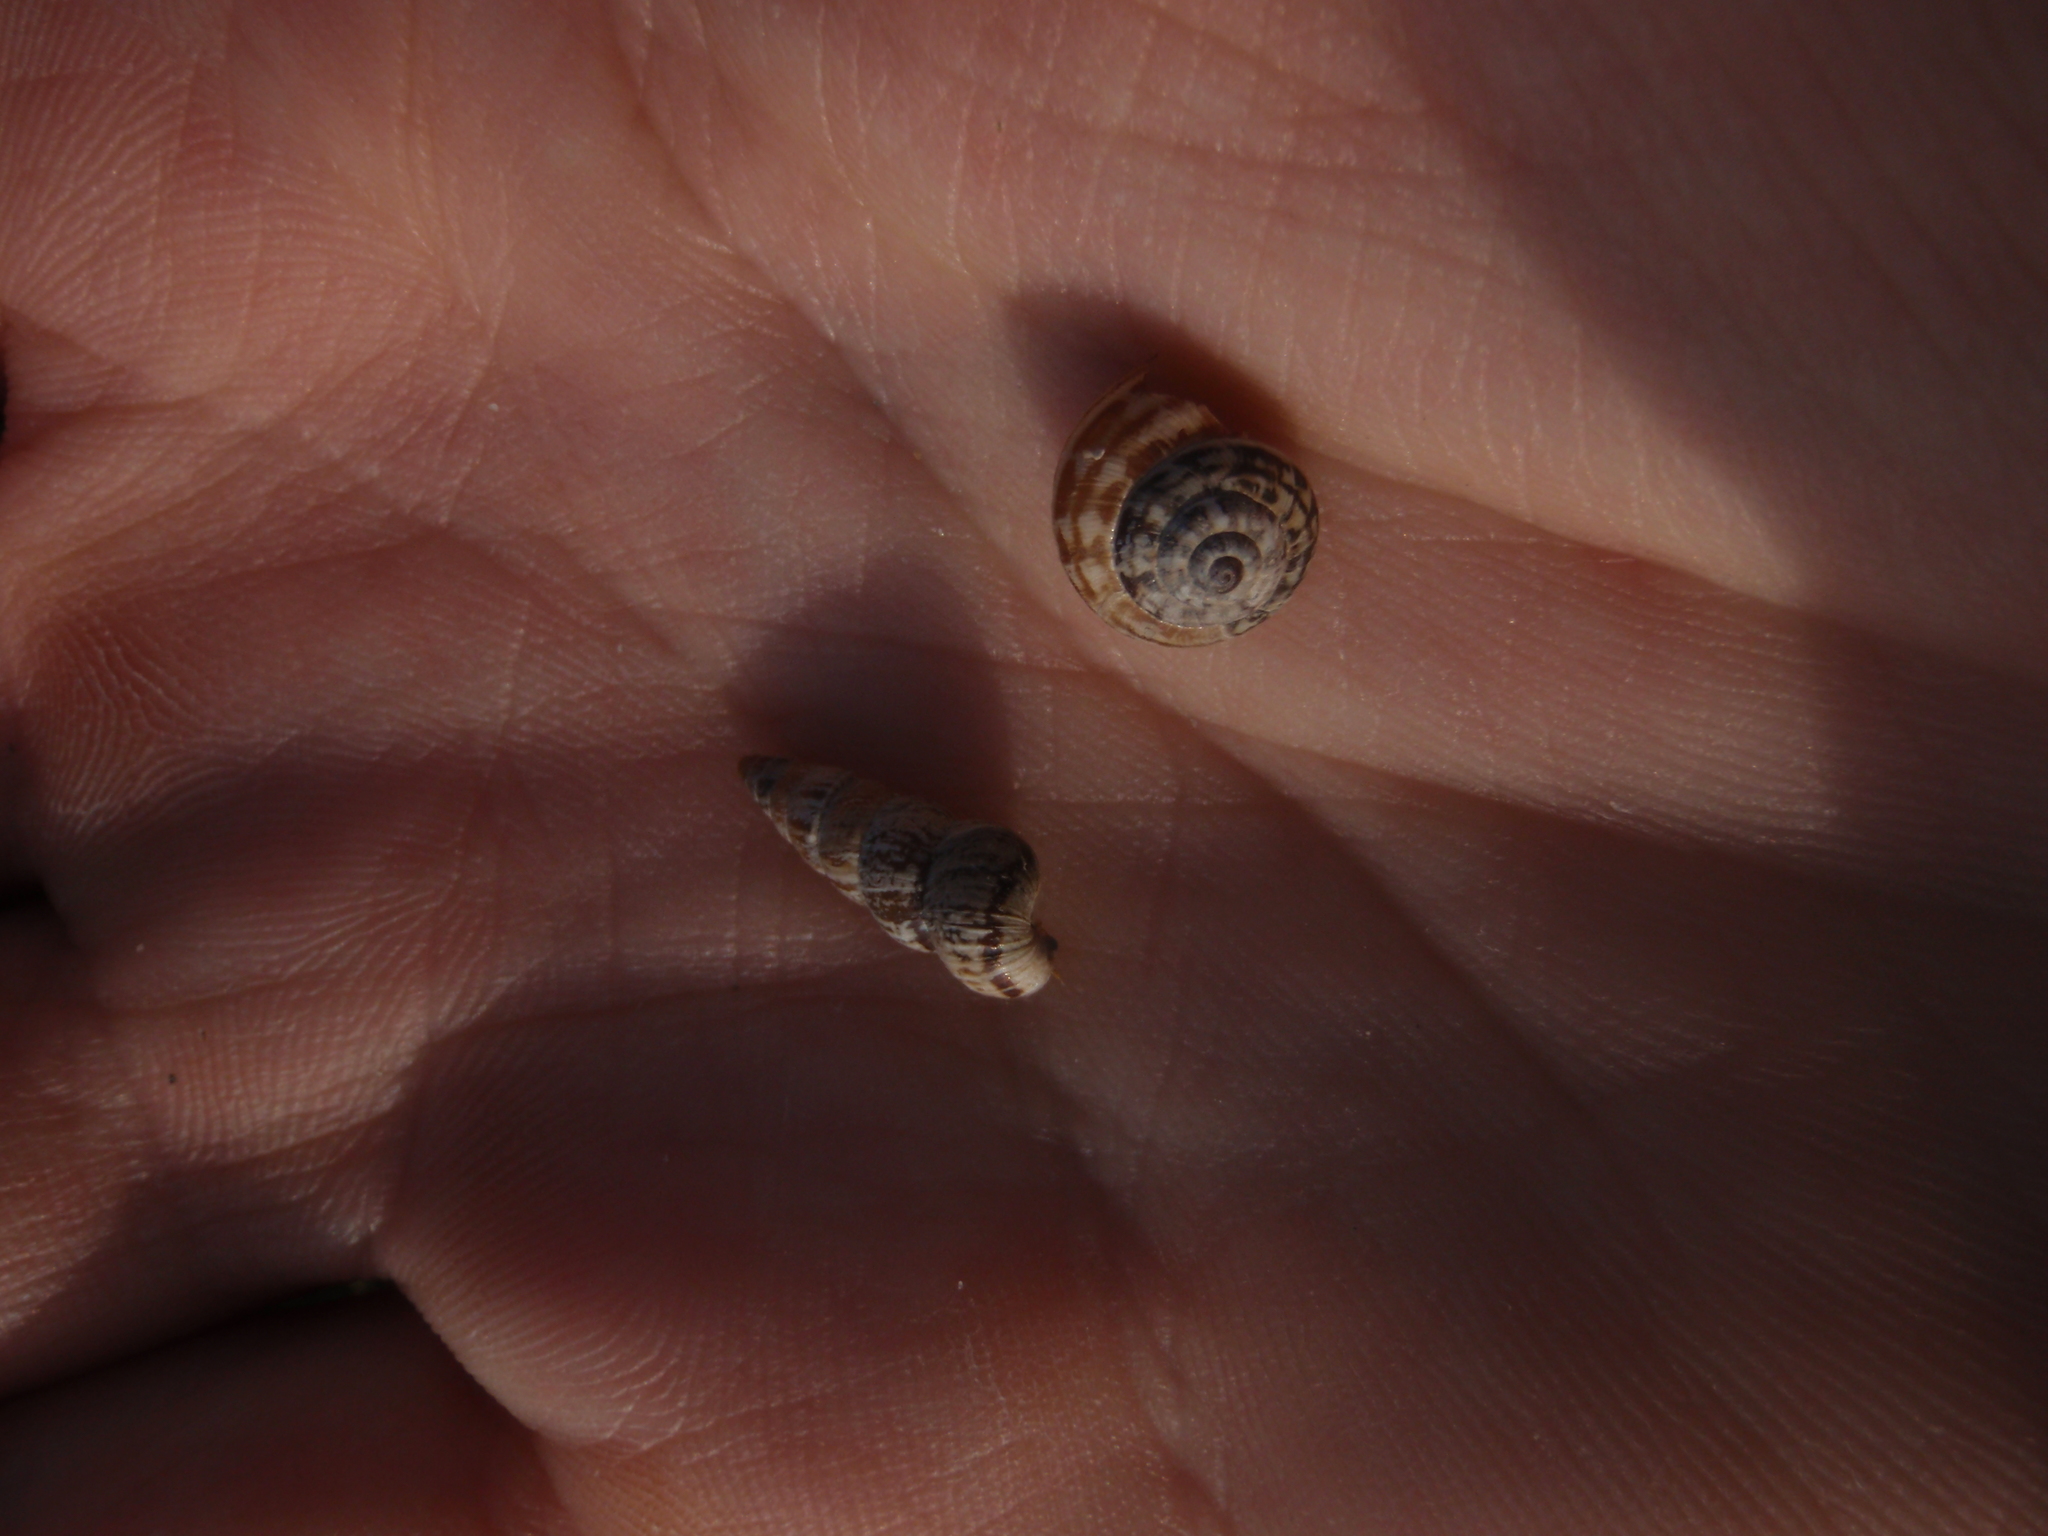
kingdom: Animalia
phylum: Mollusca
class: Gastropoda
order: Stylommatophora
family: Geomitridae
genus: Cochlicella
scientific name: Cochlicella acuta
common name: Pointed snail
